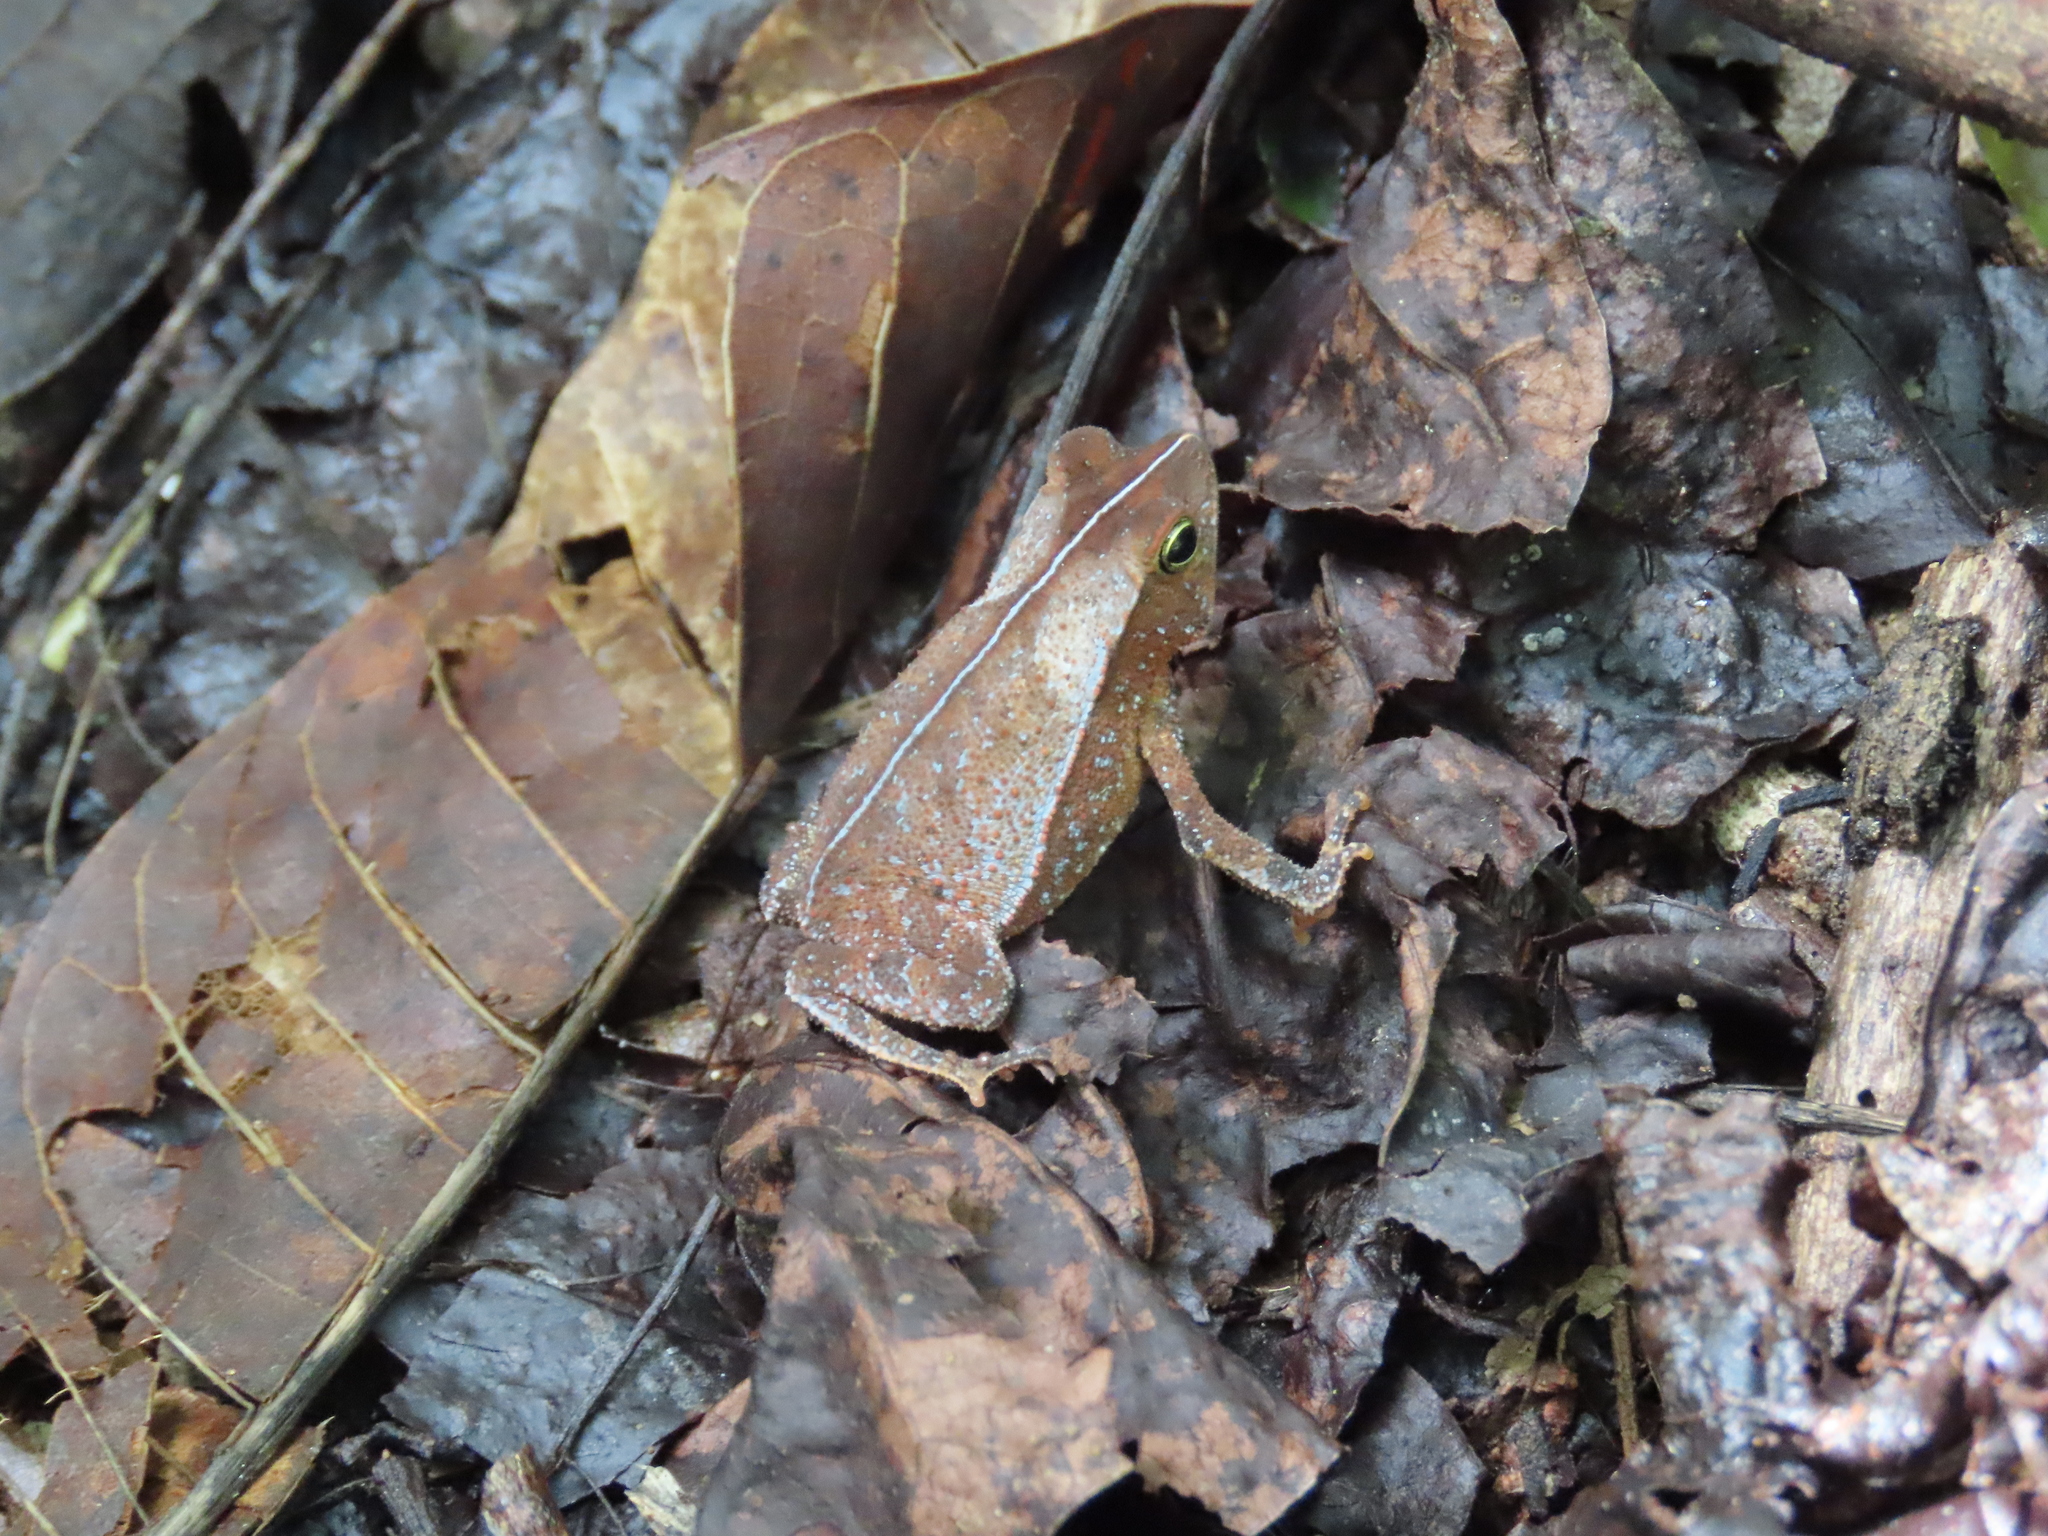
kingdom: Animalia
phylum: Chordata
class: Amphibia
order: Anura
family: Bufonidae
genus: Rhinella
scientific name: Rhinella alata
